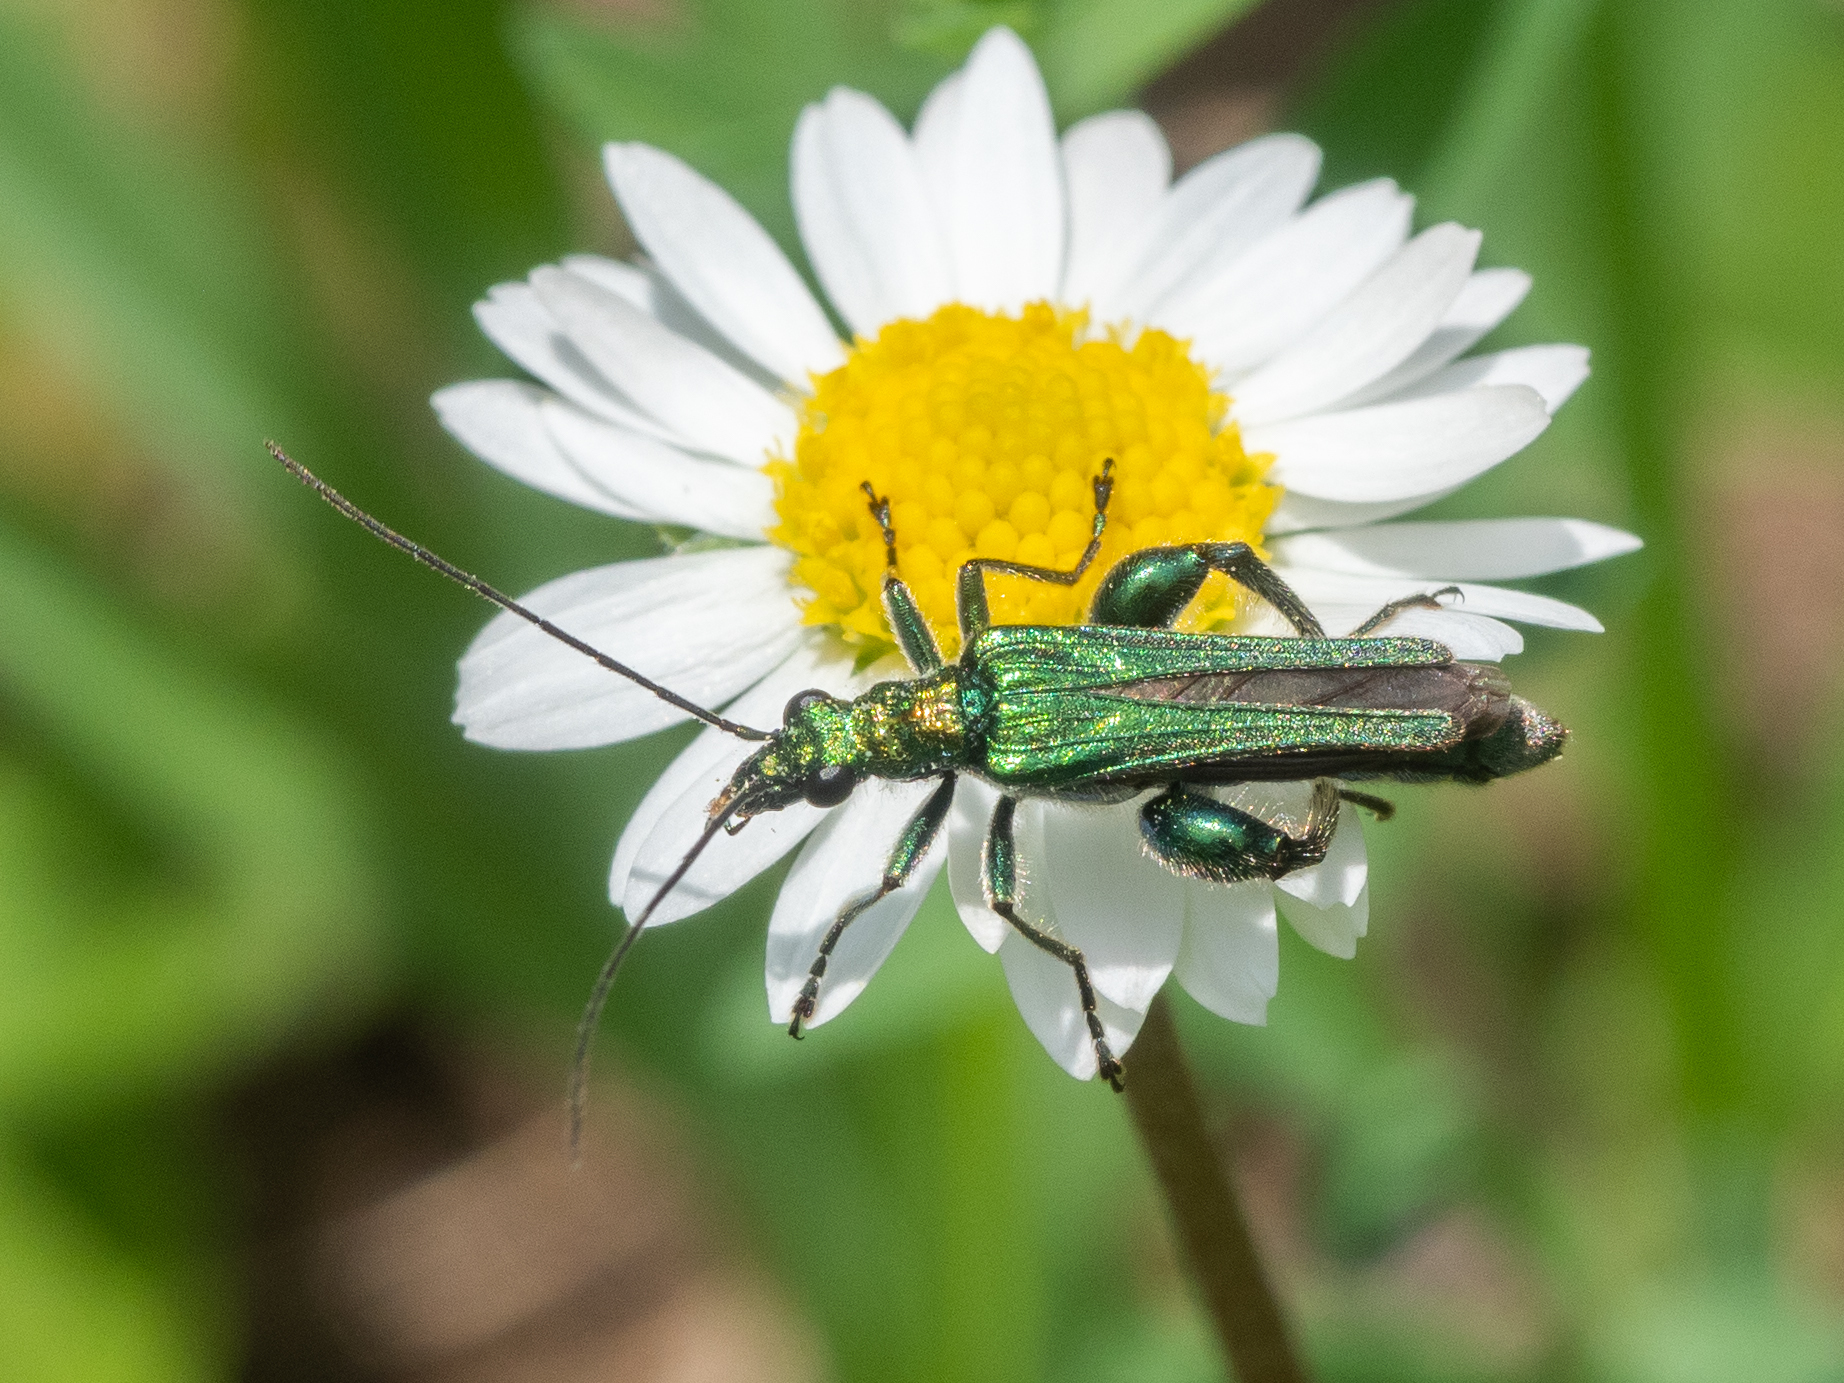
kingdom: Animalia
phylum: Arthropoda
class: Insecta
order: Coleoptera
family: Oedemeridae
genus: Oedemera
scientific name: Oedemera nobilis
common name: Swollen-thighed beetle
